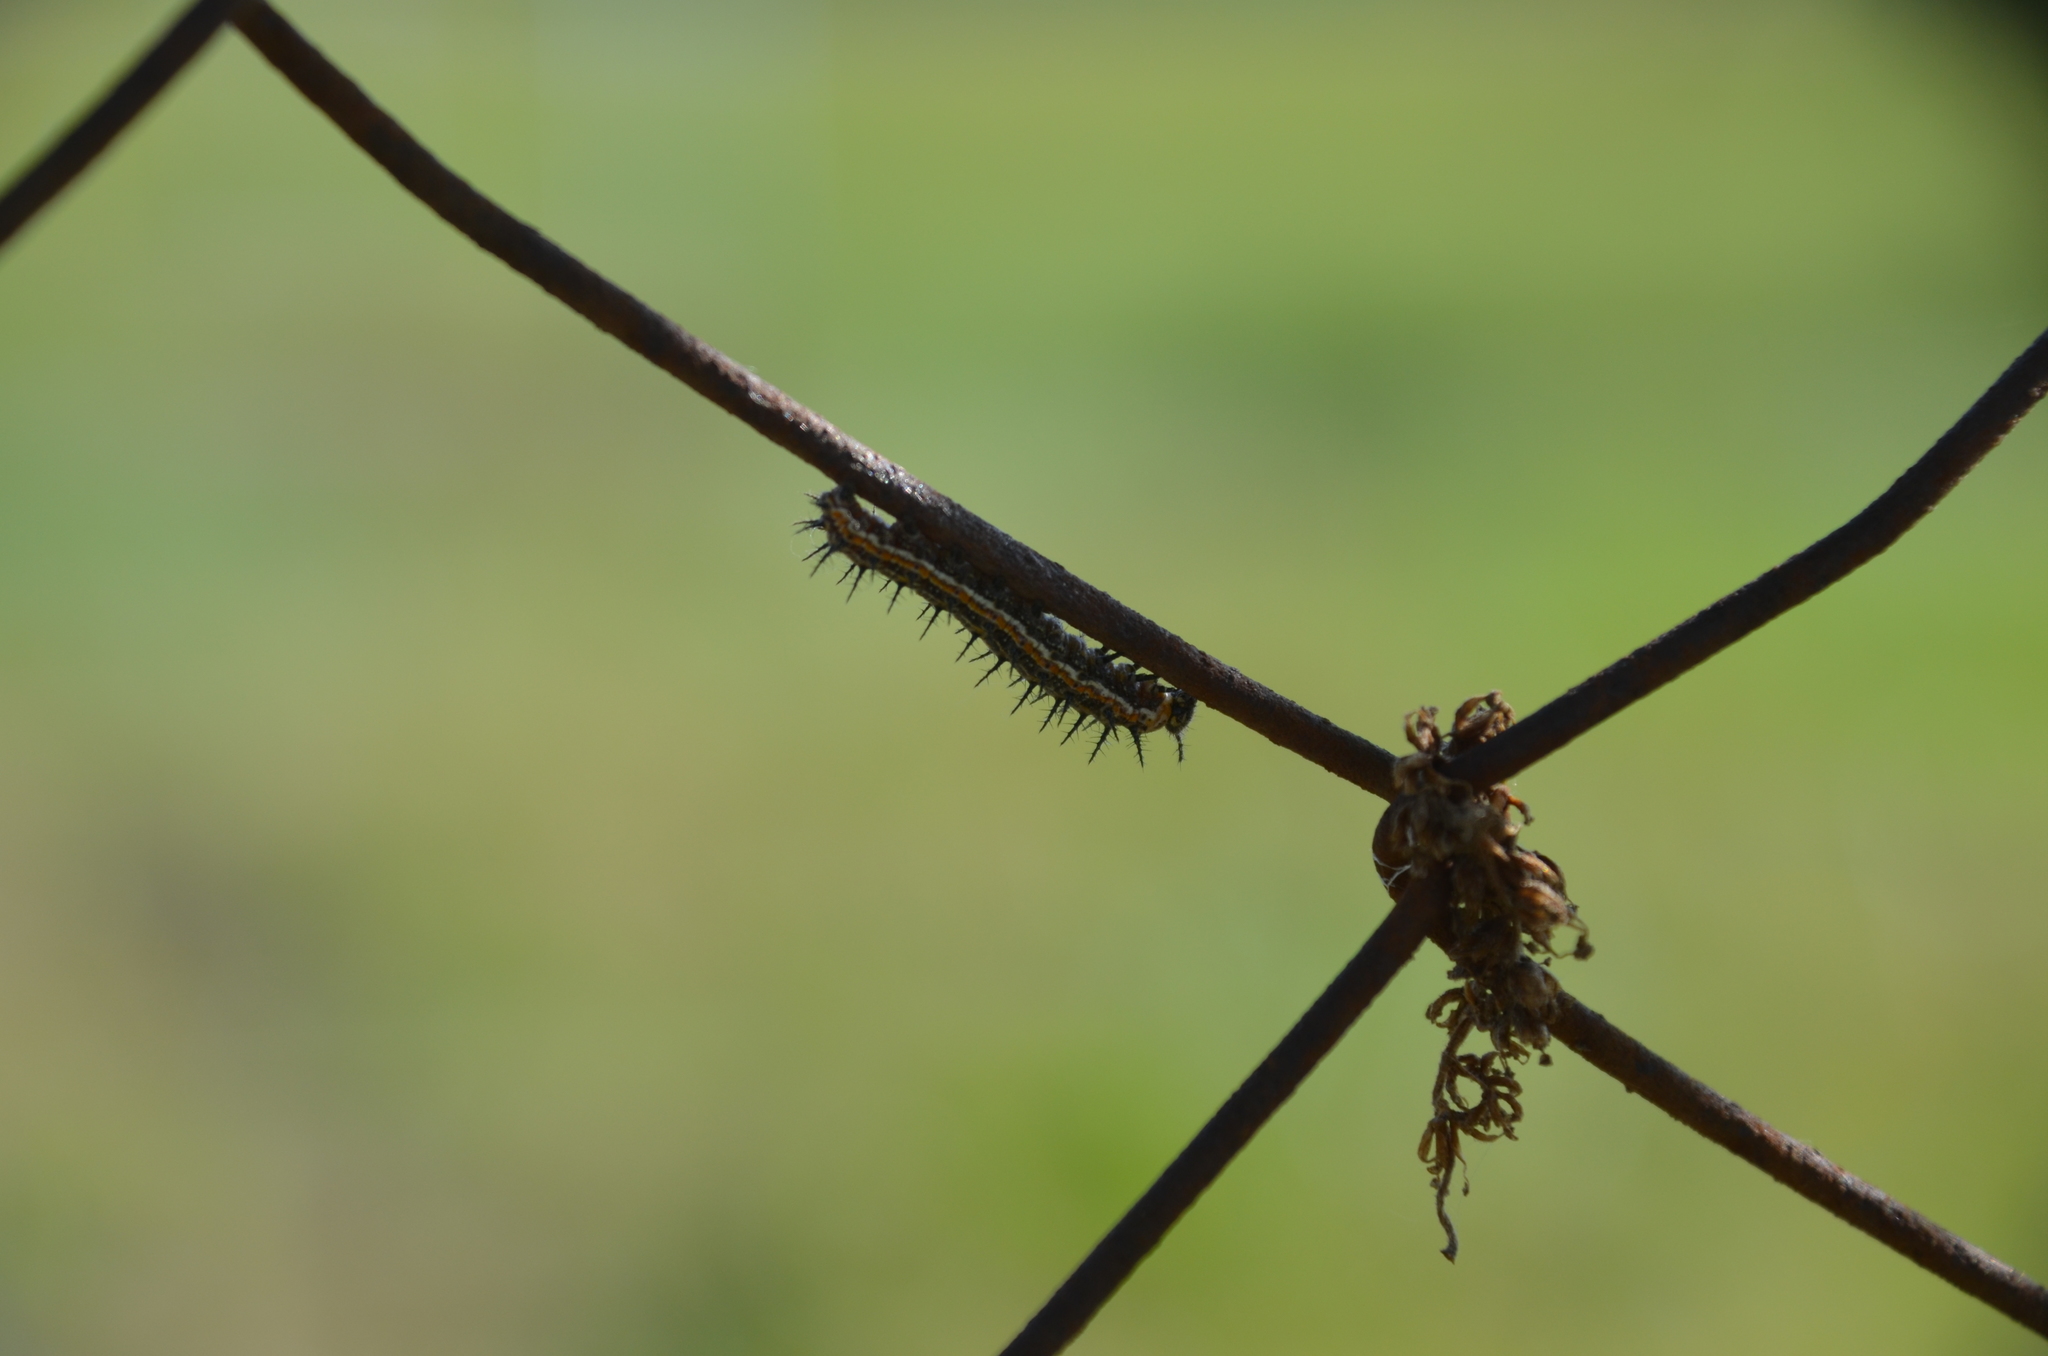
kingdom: Animalia
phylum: Arthropoda
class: Insecta
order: Lepidoptera
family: Nymphalidae
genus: Dione
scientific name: Dione vanillae
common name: Gulf fritillary
